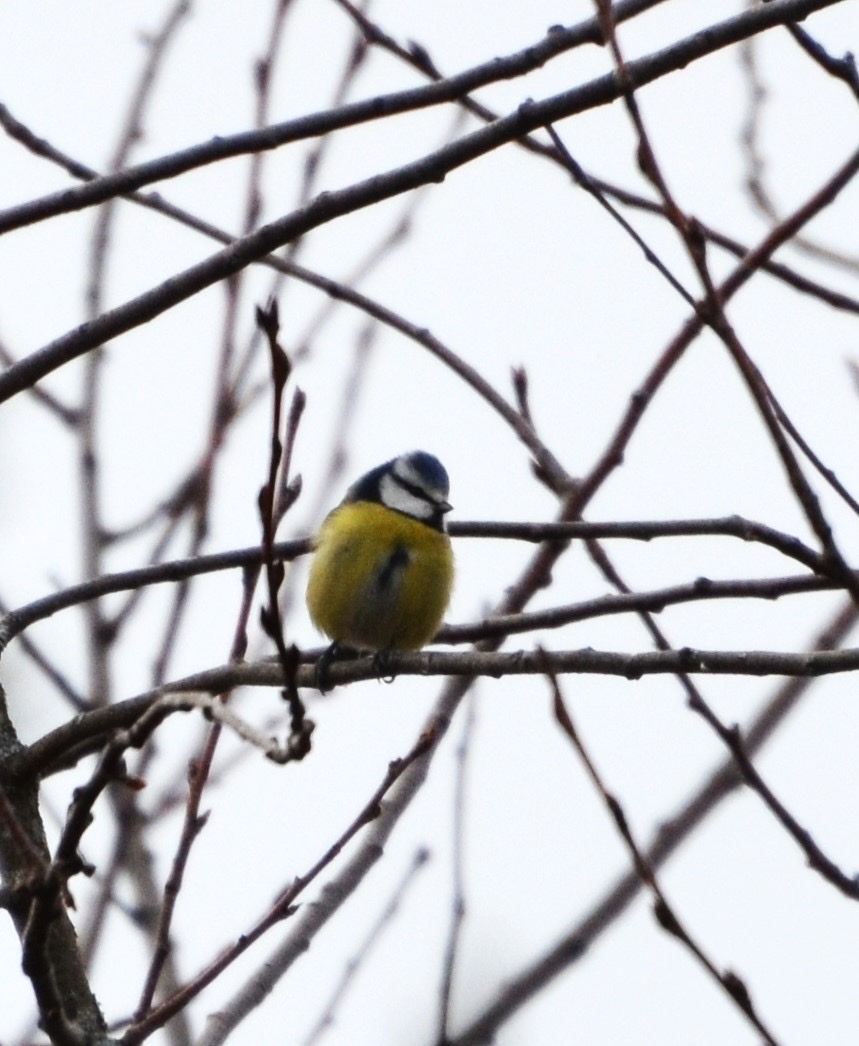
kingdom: Animalia
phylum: Chordata
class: Aves
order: Passeriformes
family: Paridae
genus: Cyanistes
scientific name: Cyanistes caeruleus
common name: Eurasian blue tit
